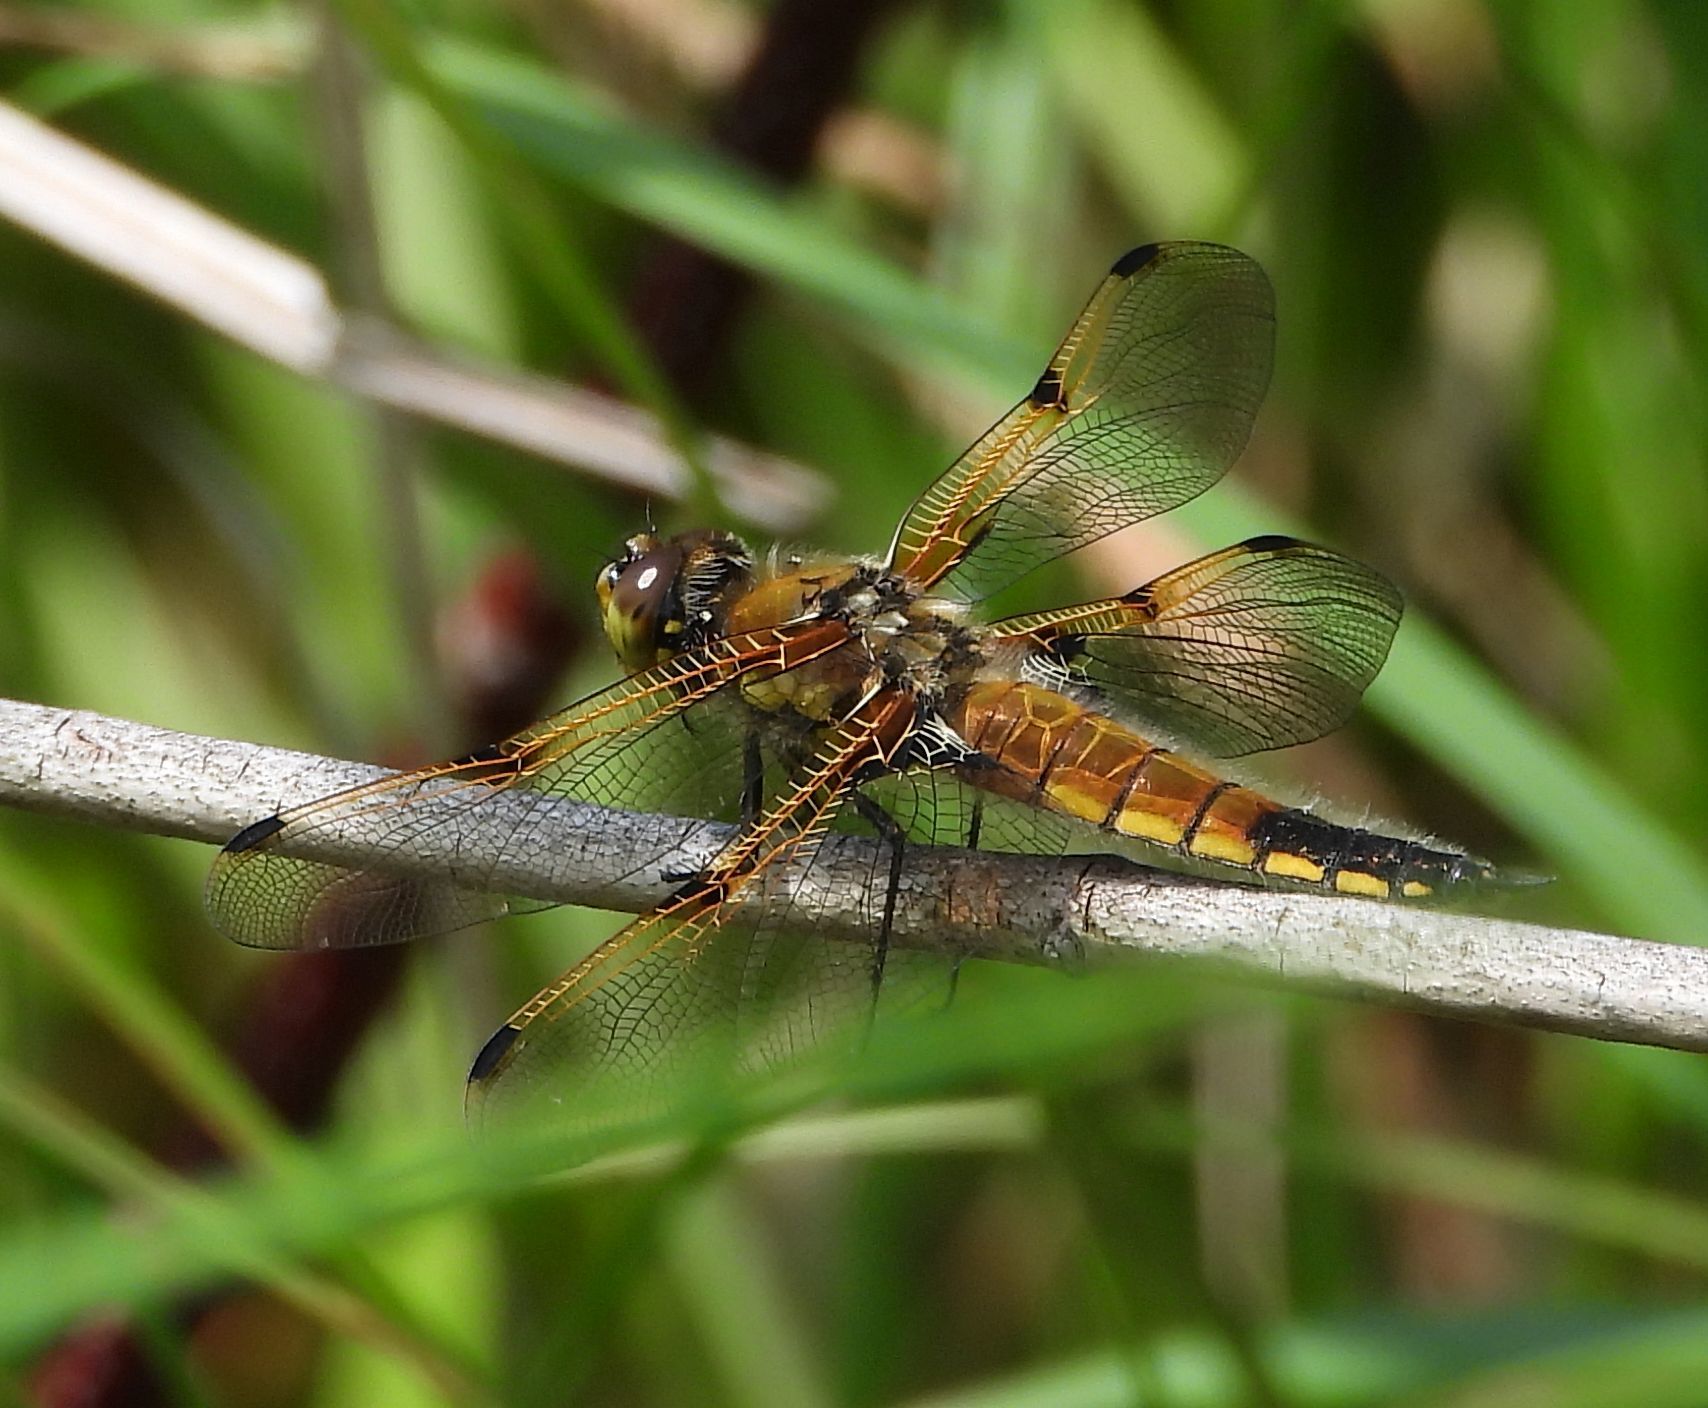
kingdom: Animalia
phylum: Arthropoda
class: Insecta
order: Odonata
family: Libellulidae
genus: Libellula
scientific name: Libellula quadrimaculata
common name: Four-spotted chaser
